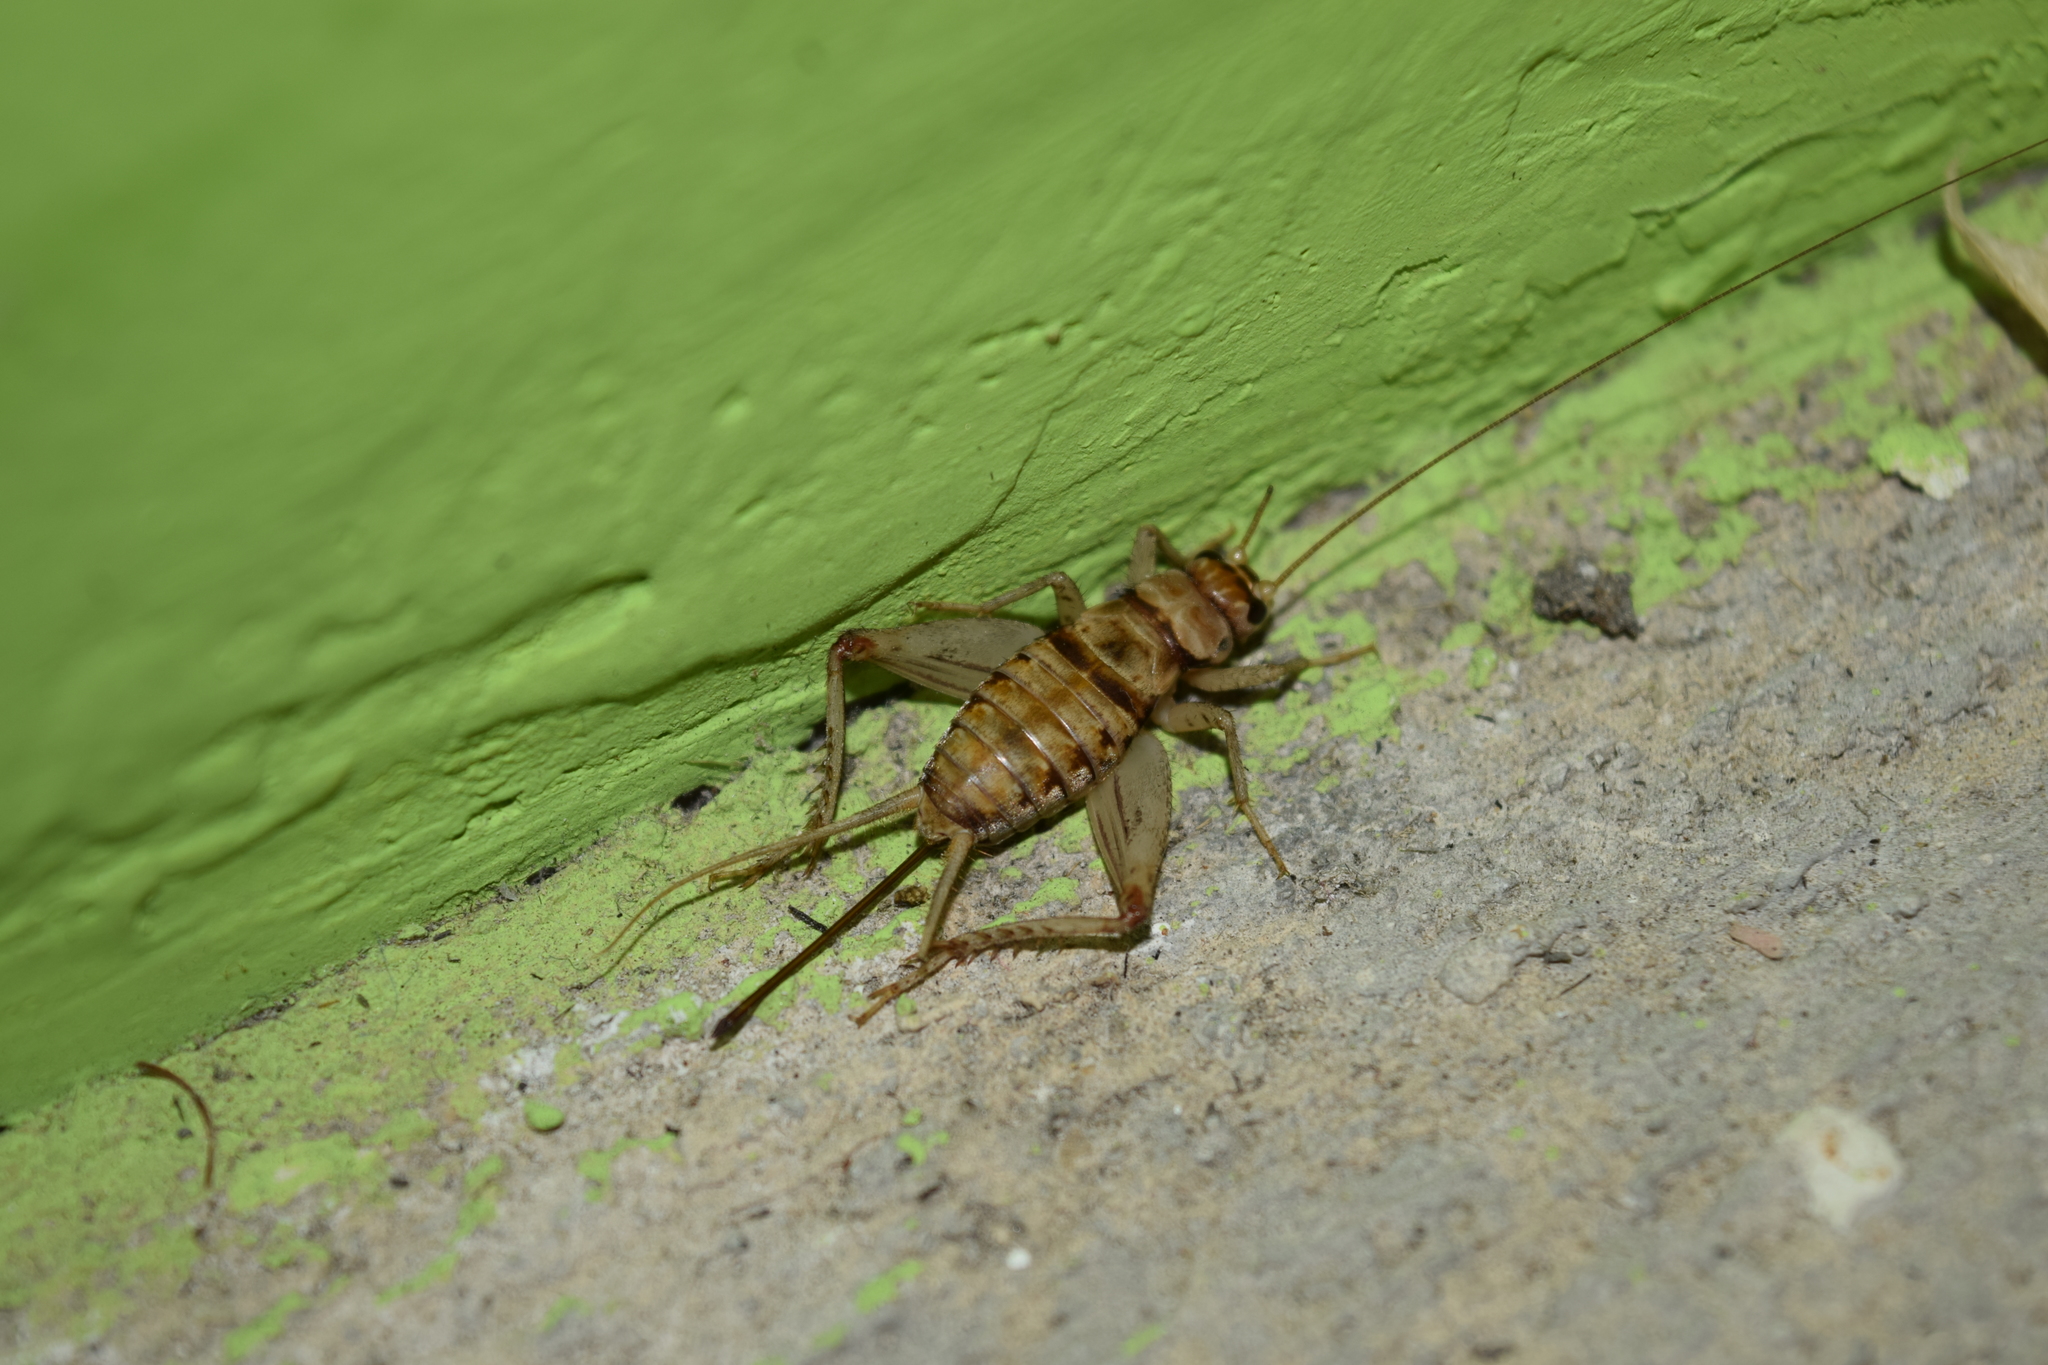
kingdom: Animalia
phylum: Arthropoda
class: Insecta
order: Orthoptera
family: Gryllidae
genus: Gryllodes
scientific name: Gryllodes sigillatus
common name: Tropical house cricket
